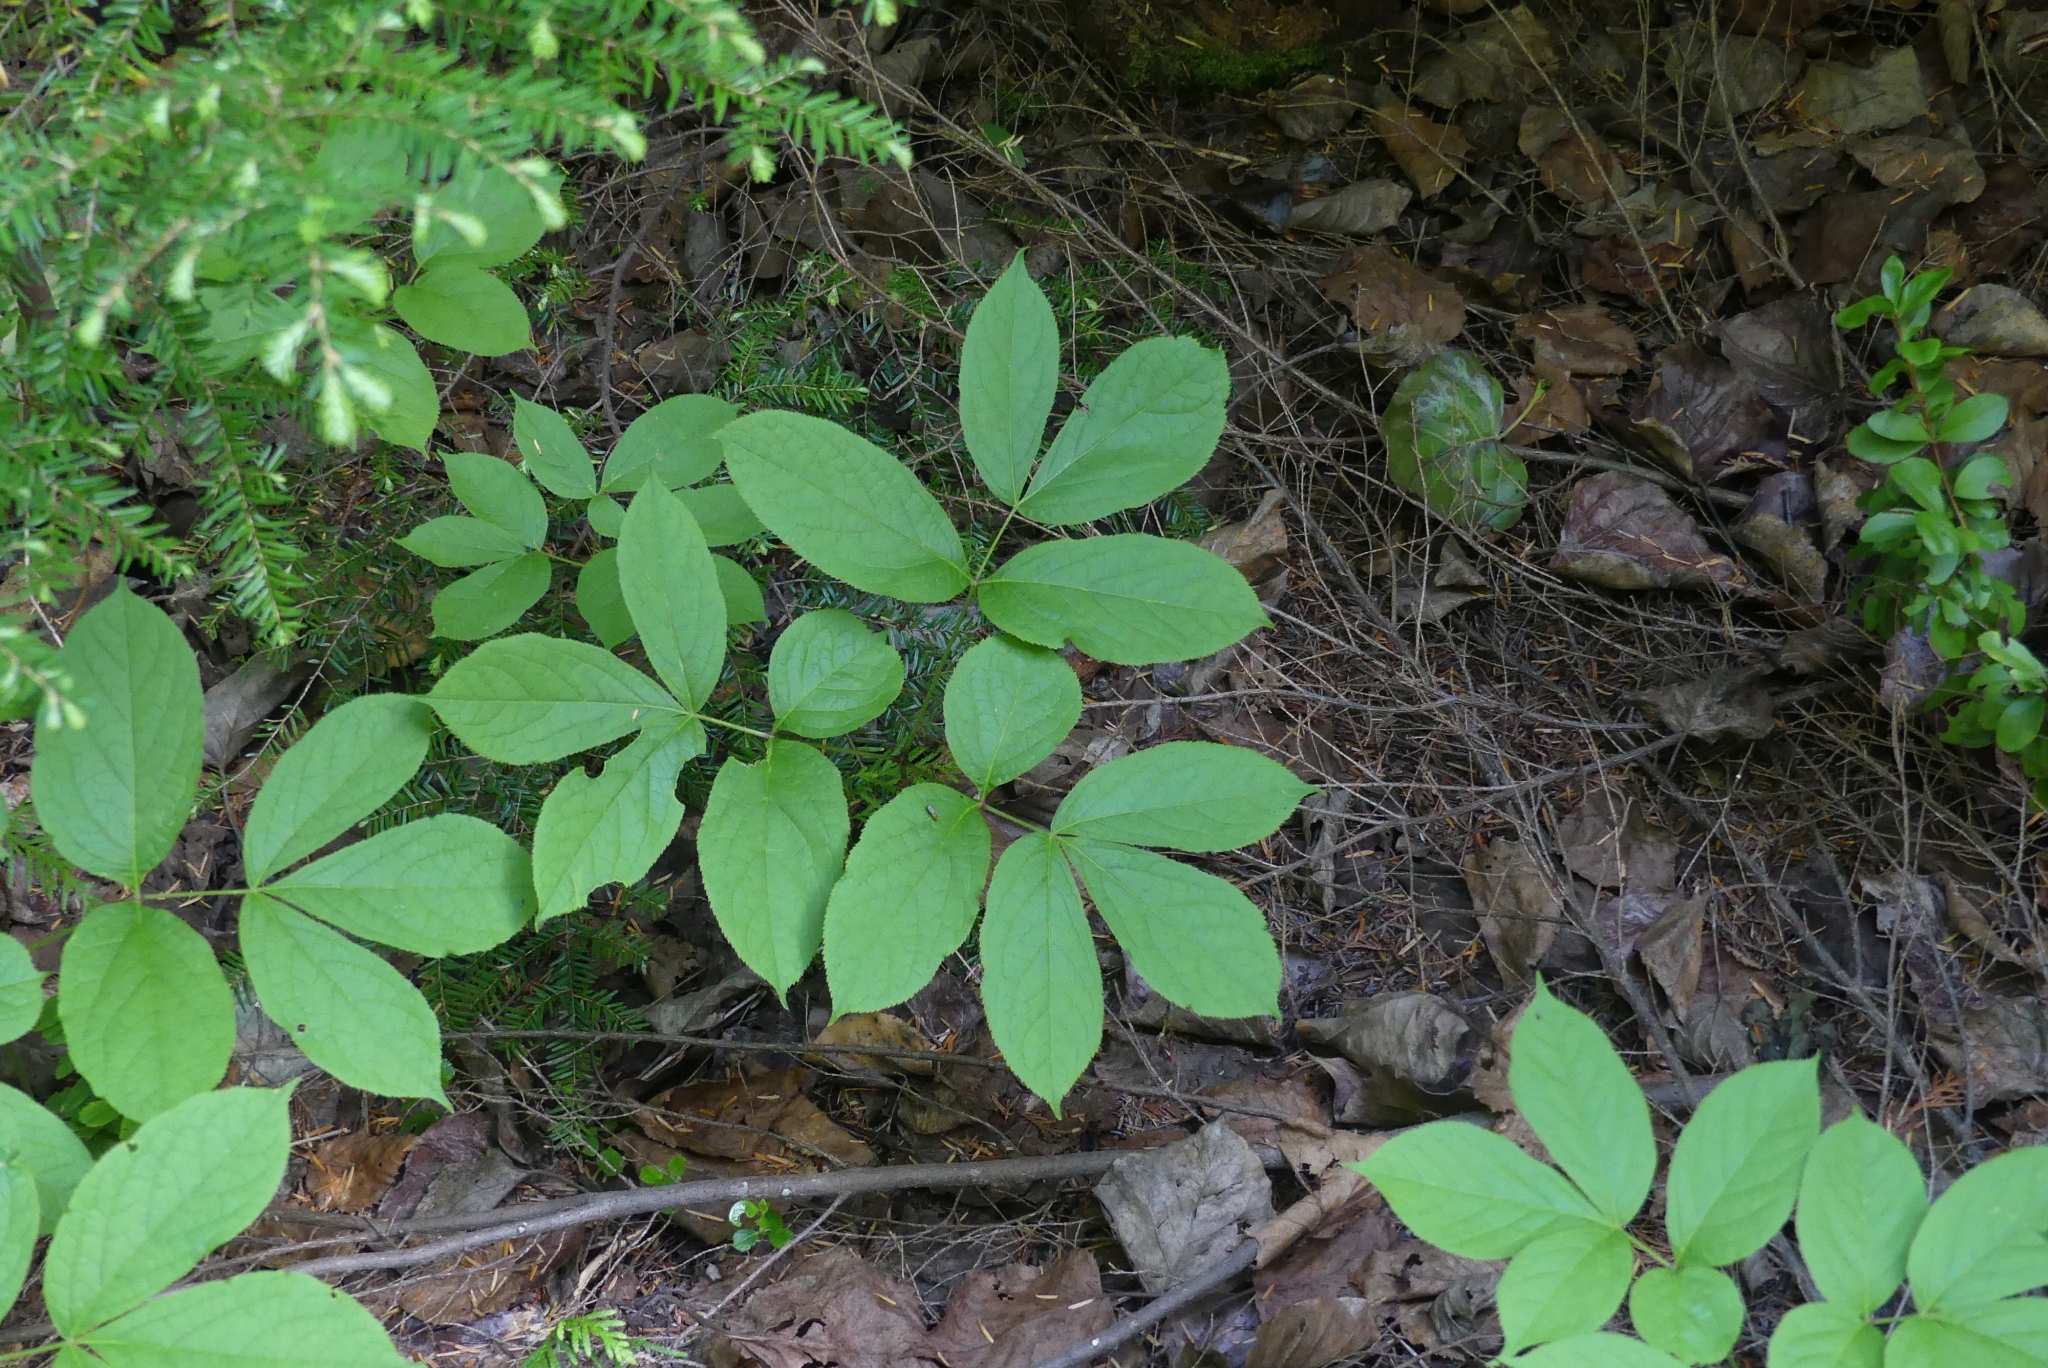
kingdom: Plantae
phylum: Tracheophyta
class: Magnoliopsida
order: Apiales
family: Araliaceae
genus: Aralia
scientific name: Aralia nudicaulis
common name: Wild sarsaparilla
